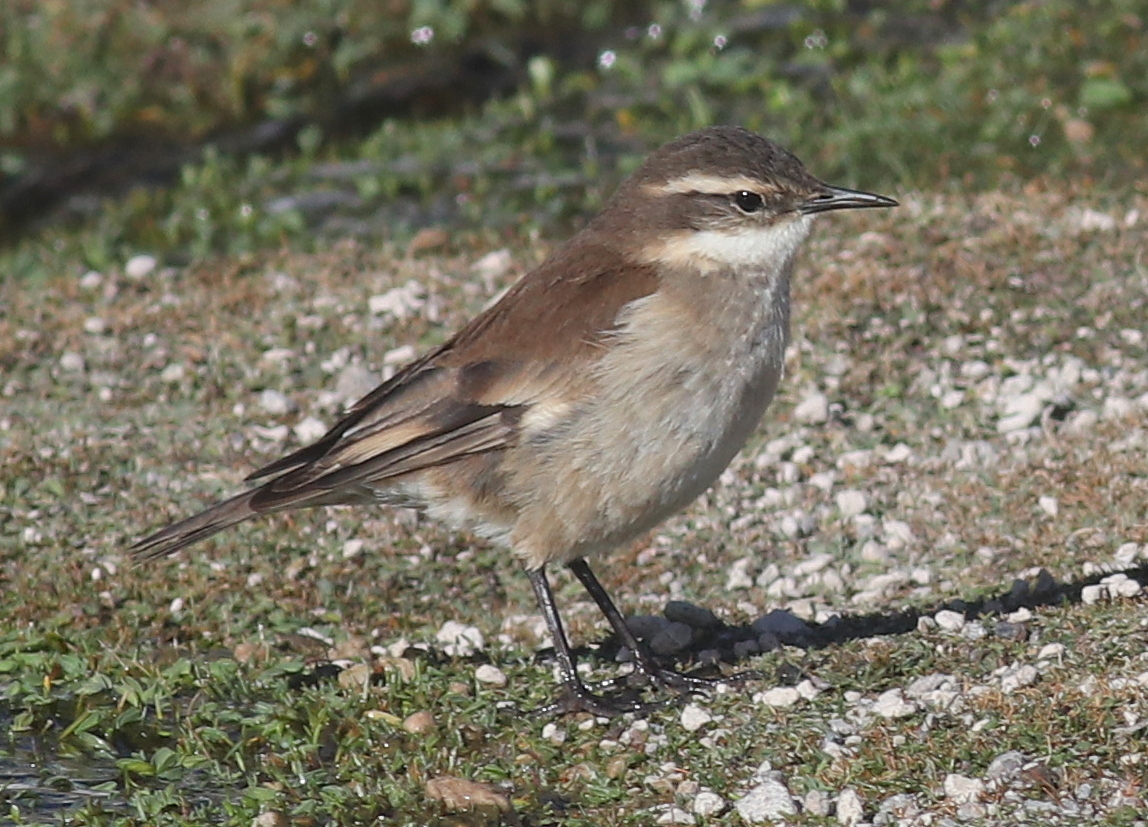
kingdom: Animalia
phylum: Chordata
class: Aves
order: Passeriformes
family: Furnariidae
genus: Cinclodes
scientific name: Cinclodes fuscus
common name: Buff-winged cinclodes
